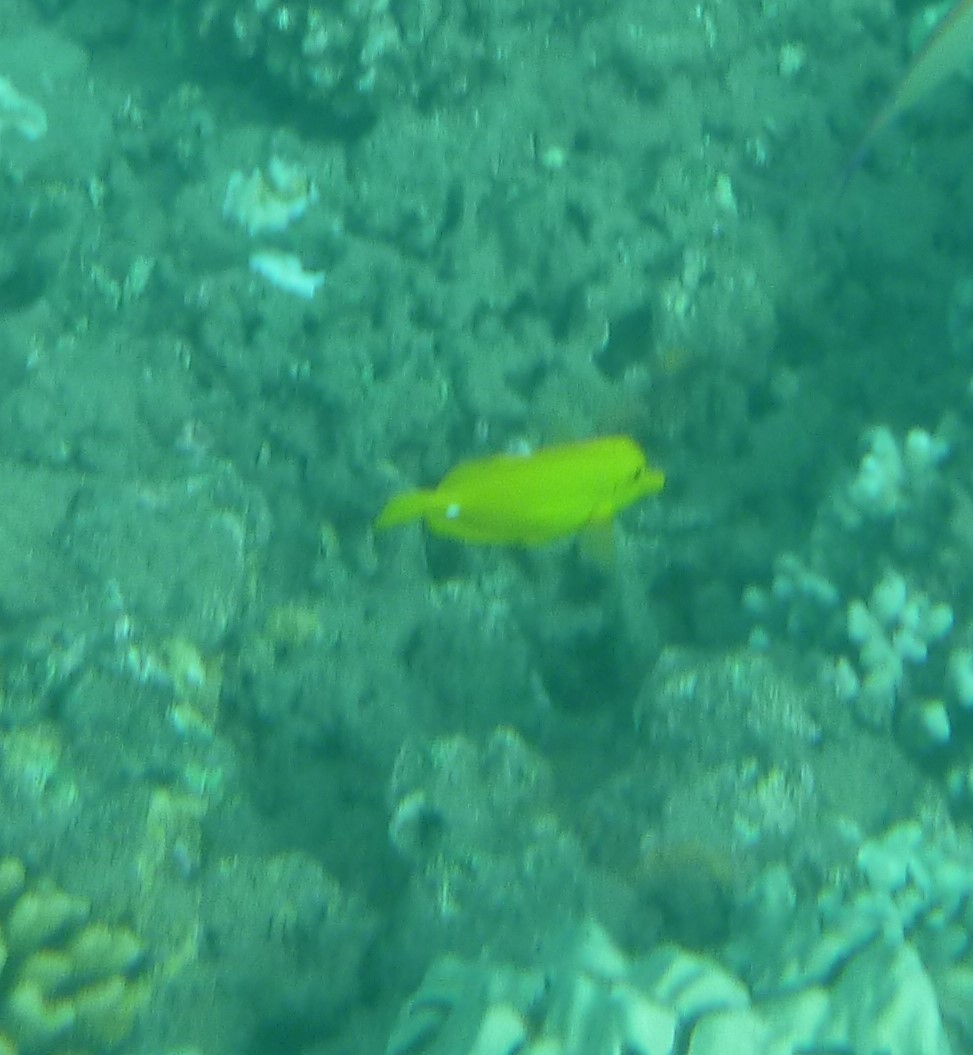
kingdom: Animalia
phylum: Chordata
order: Perciformes
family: Acanthuridae
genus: Zebrasoma
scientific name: Zebrasoma flavescens
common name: Yellow tang
